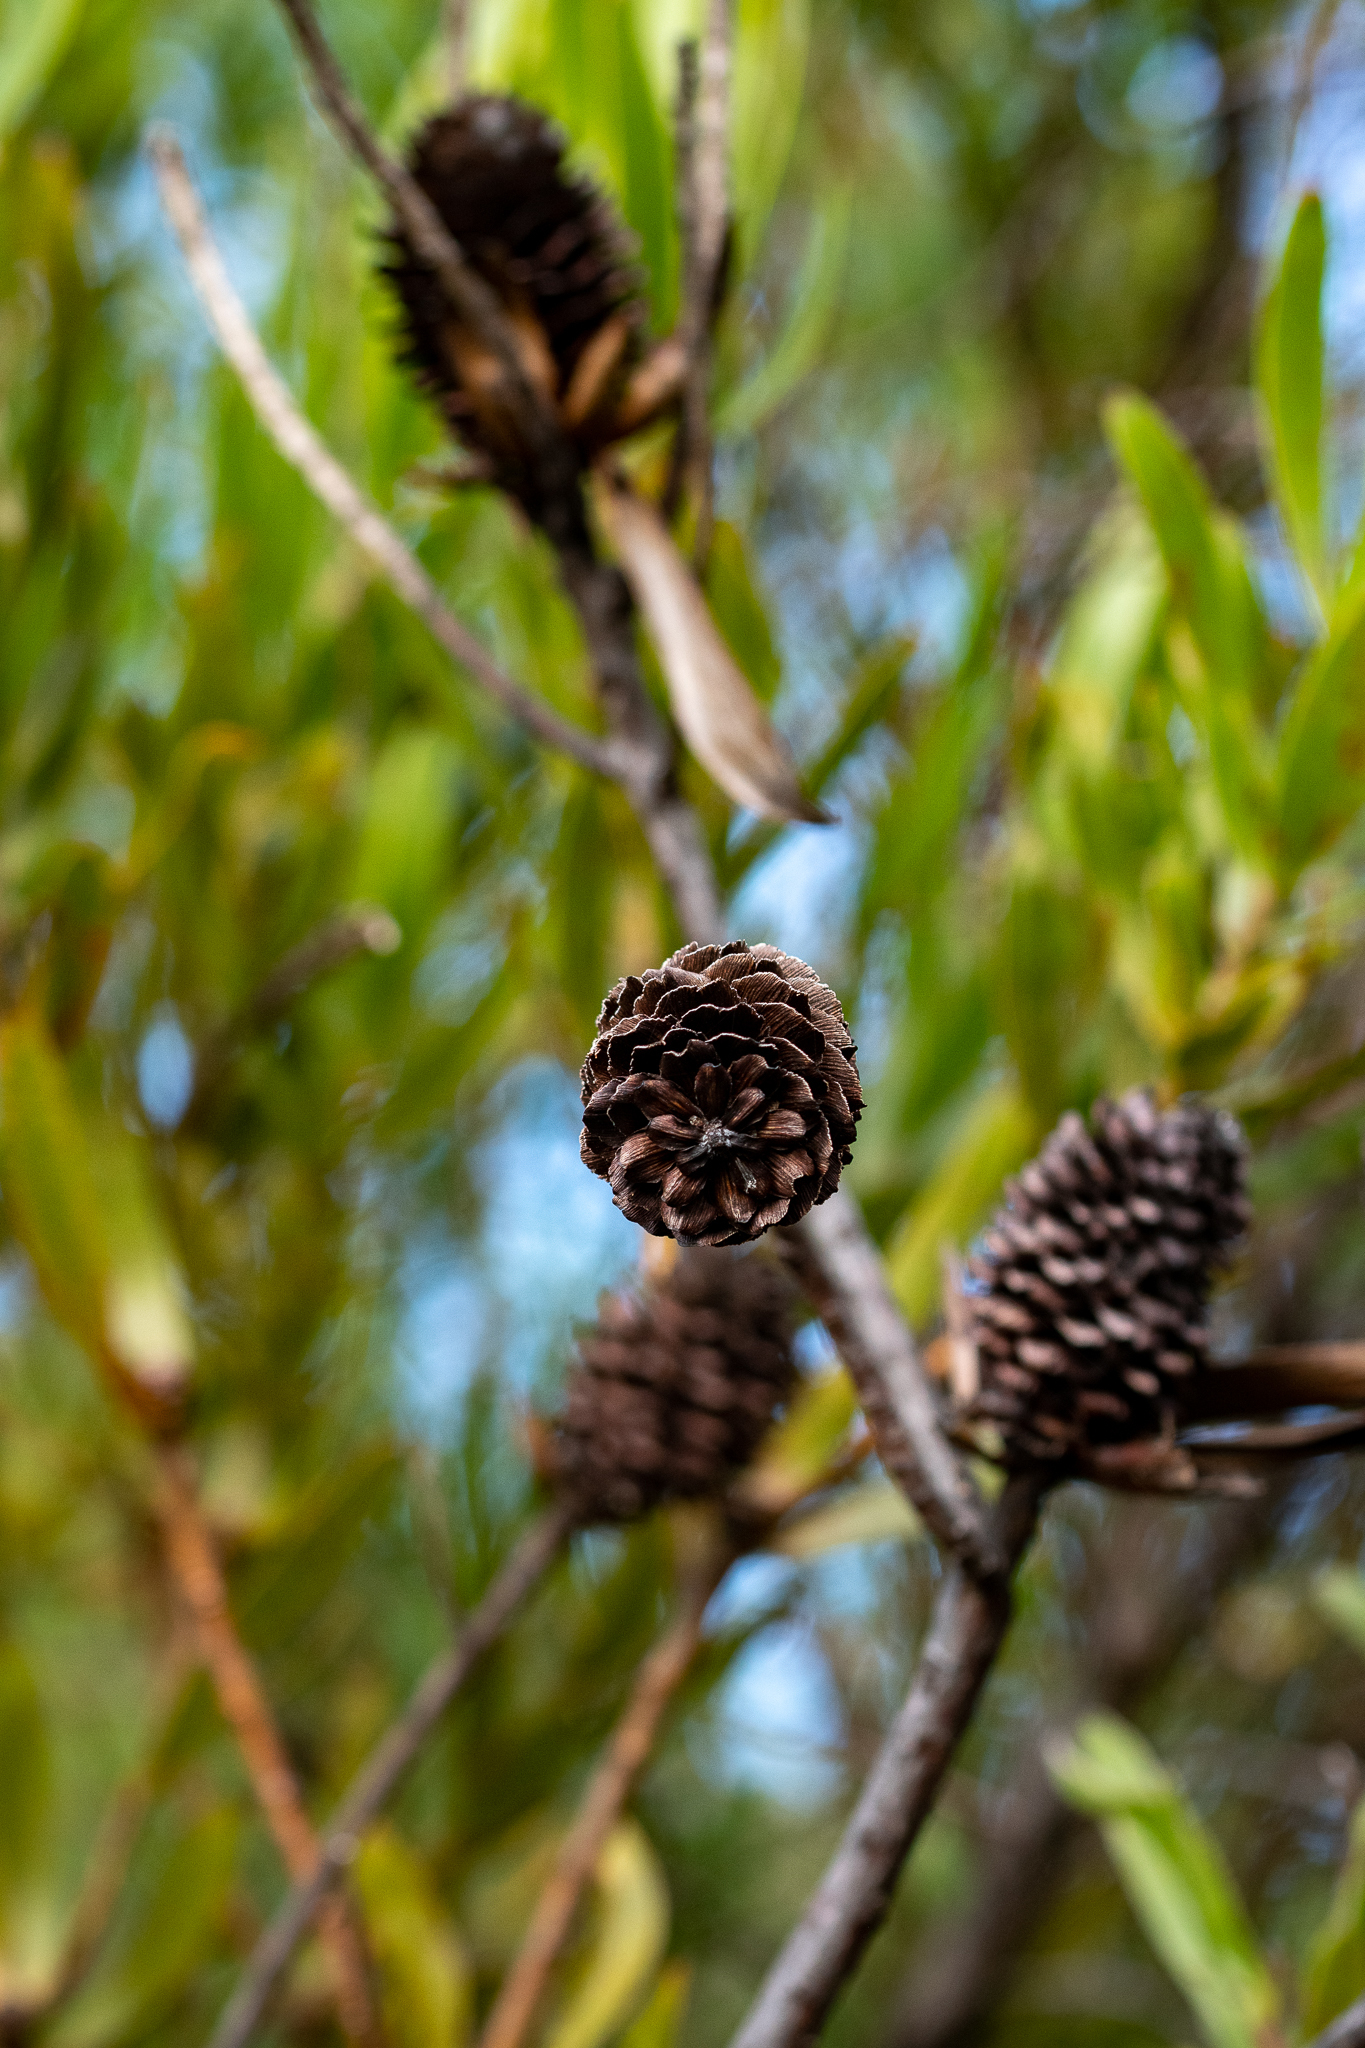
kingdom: Plantae
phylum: Tracheophyta
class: Magnoliopsida
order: Proteales
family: Proteaceae
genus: Leucadendron
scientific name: Leucadendron laureolum
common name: Golden sunshinebush
